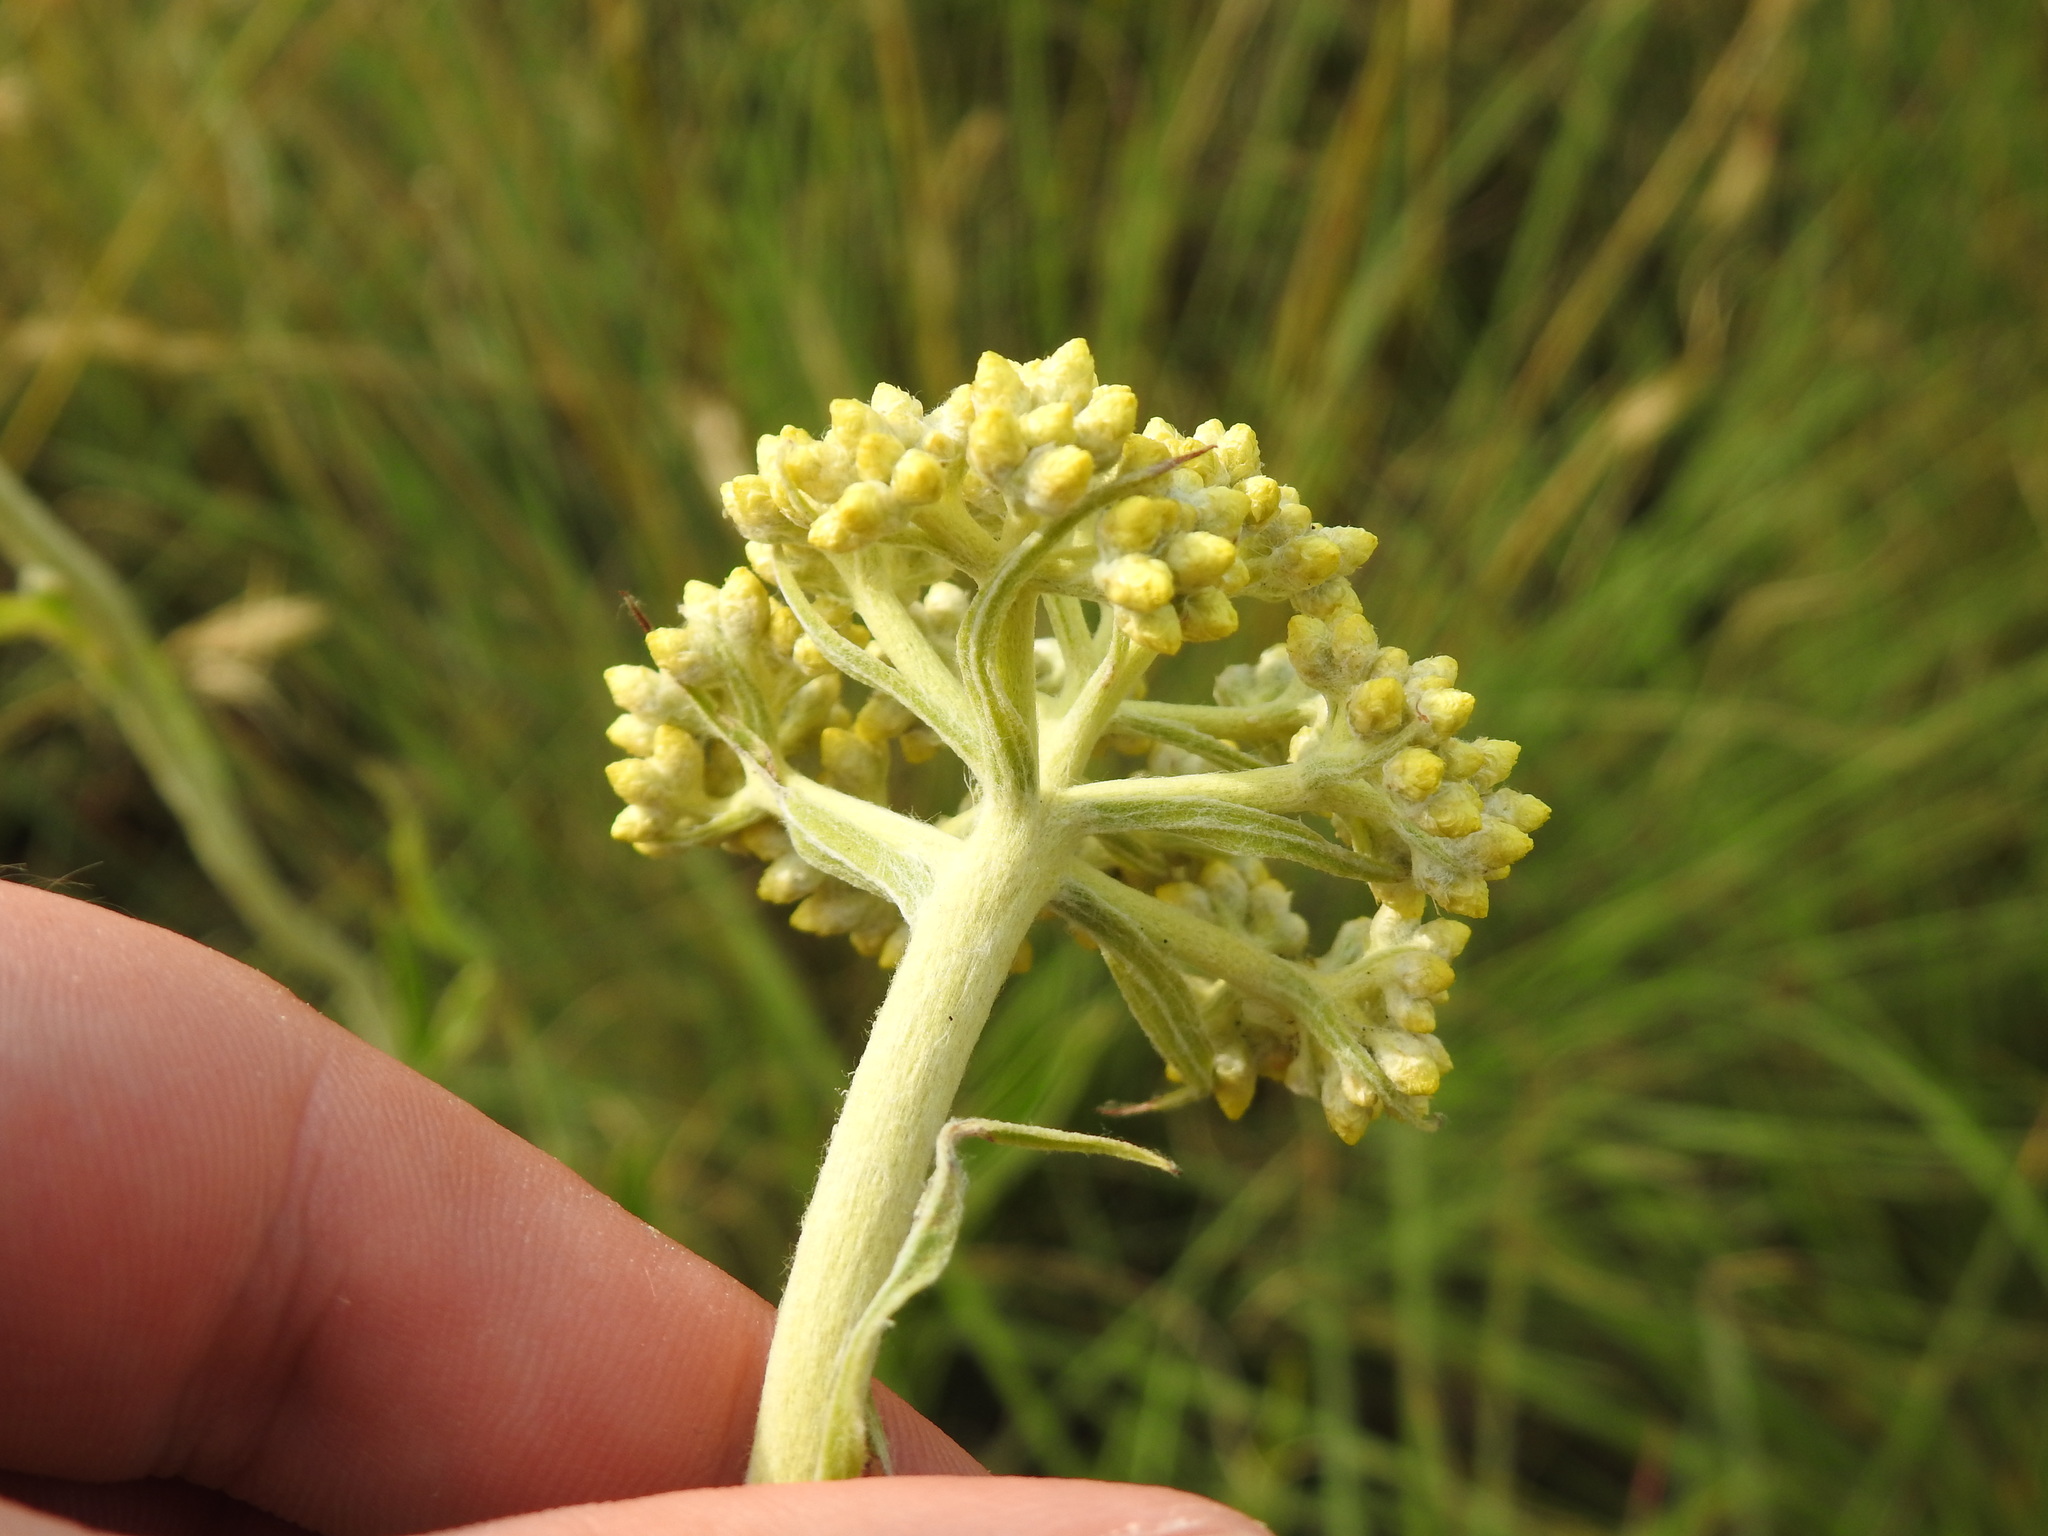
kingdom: Plantae
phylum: Tracheophyta
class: Magnoliopsida
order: Asterales
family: Asteraceae
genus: Helichrysum
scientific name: Helichrysum nudifolium
